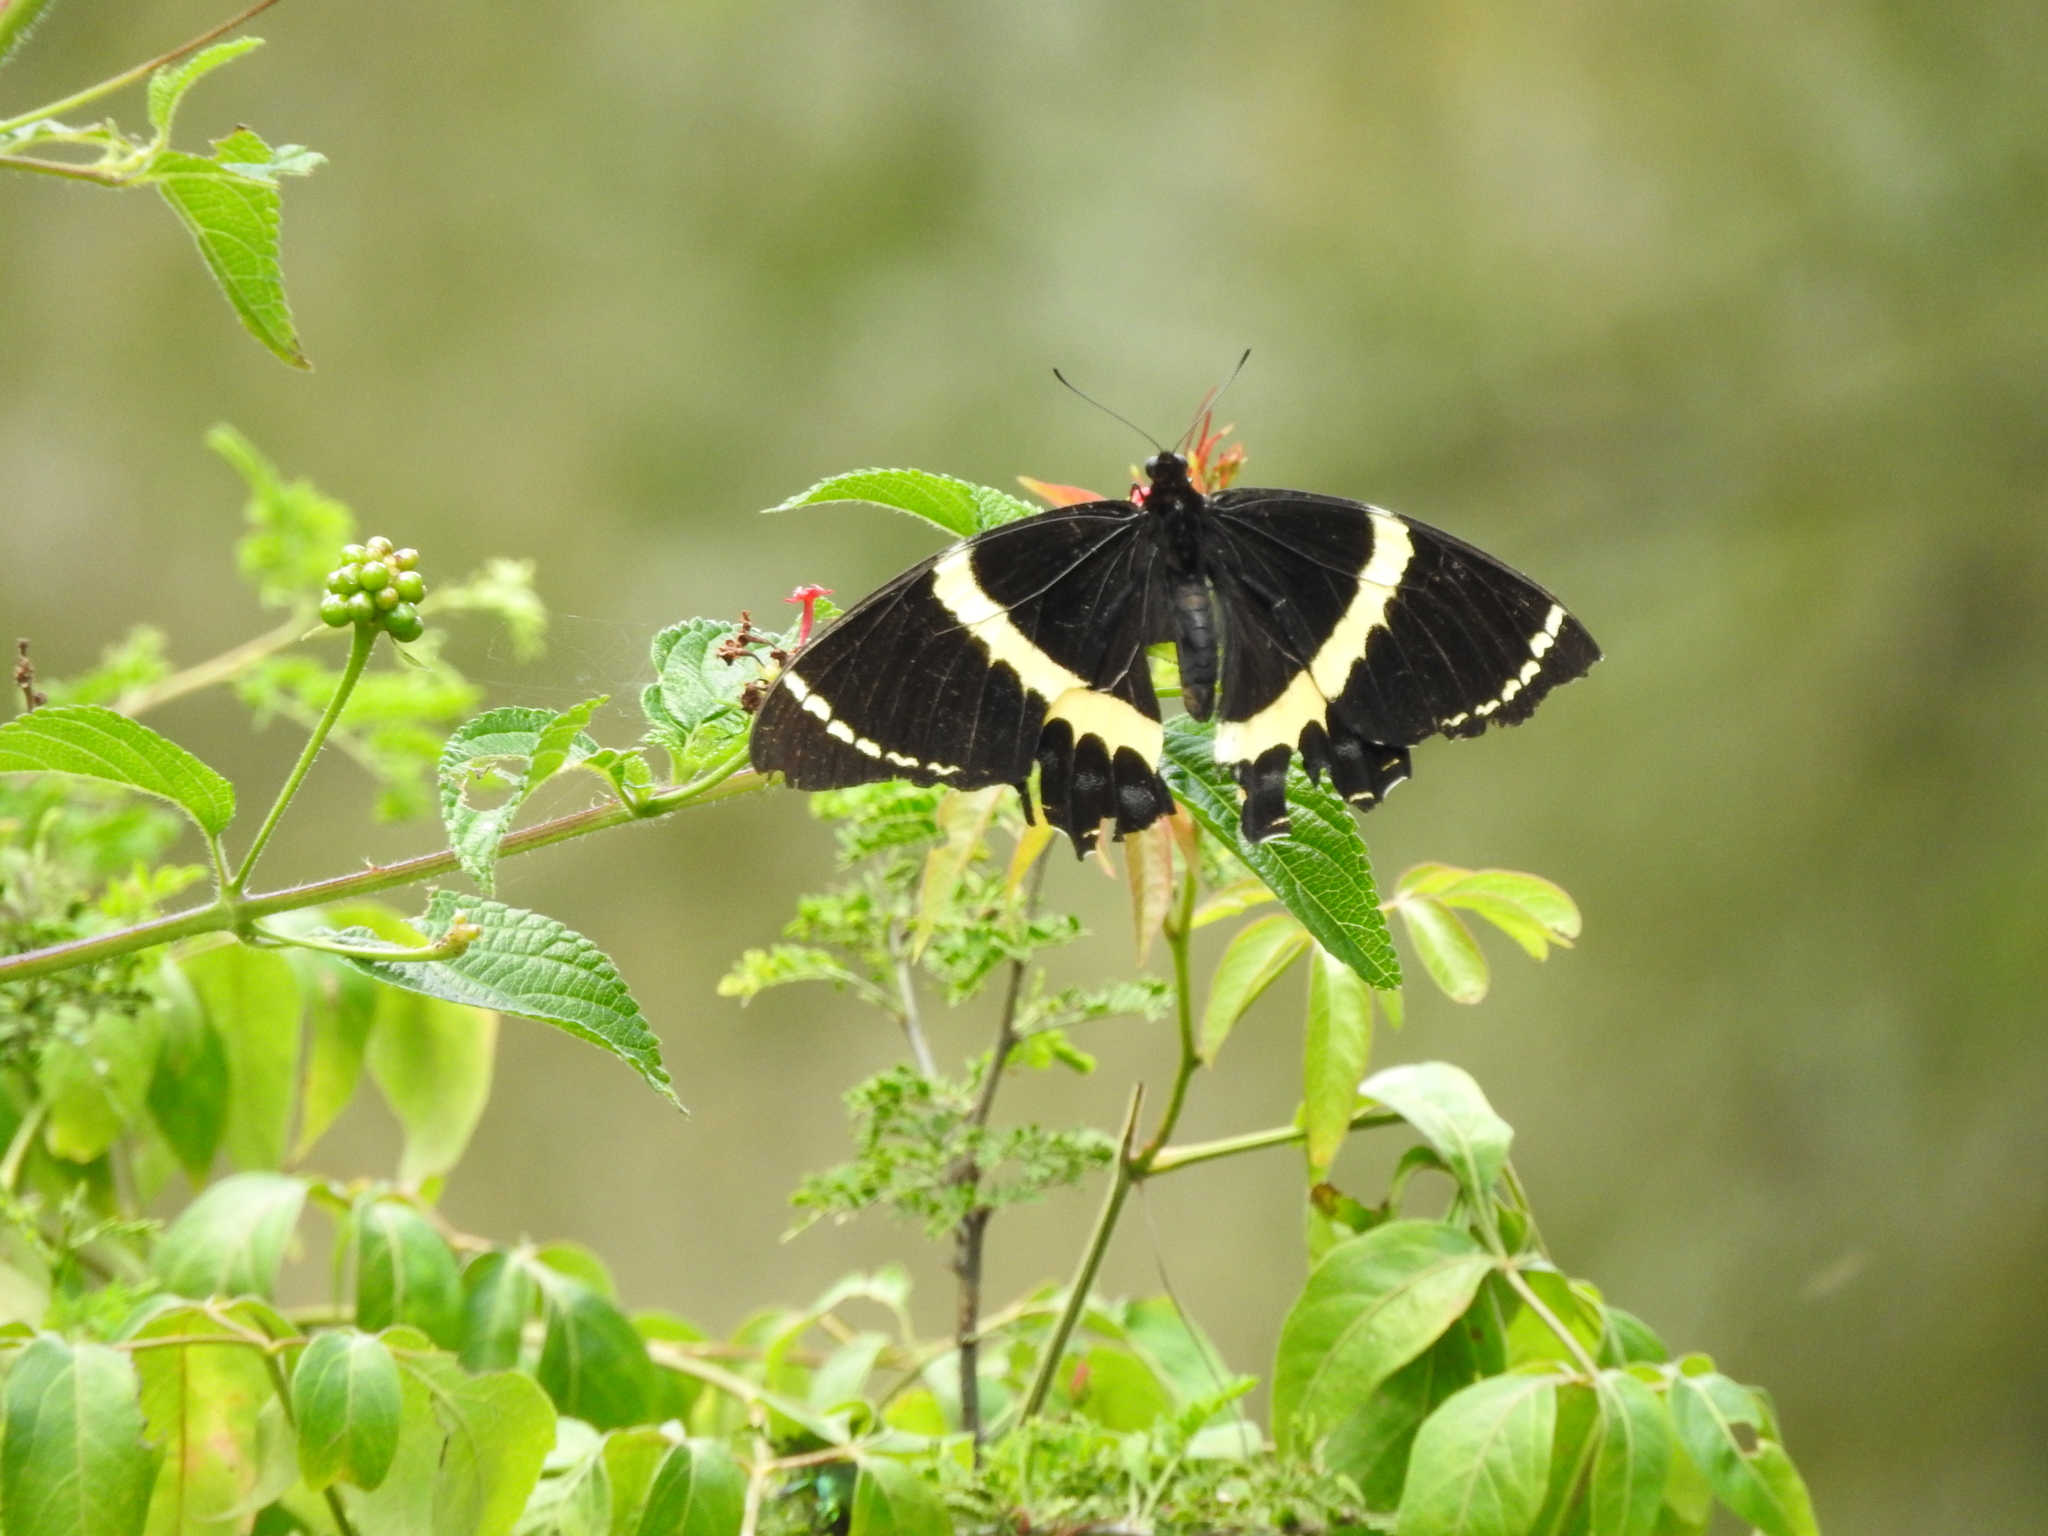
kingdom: Animalia
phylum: Arthropoda
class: Insecta
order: Lepidoptera
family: Papilionidae
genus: Papilio
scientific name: Papilio garamas
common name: Magnificent swallowtail
